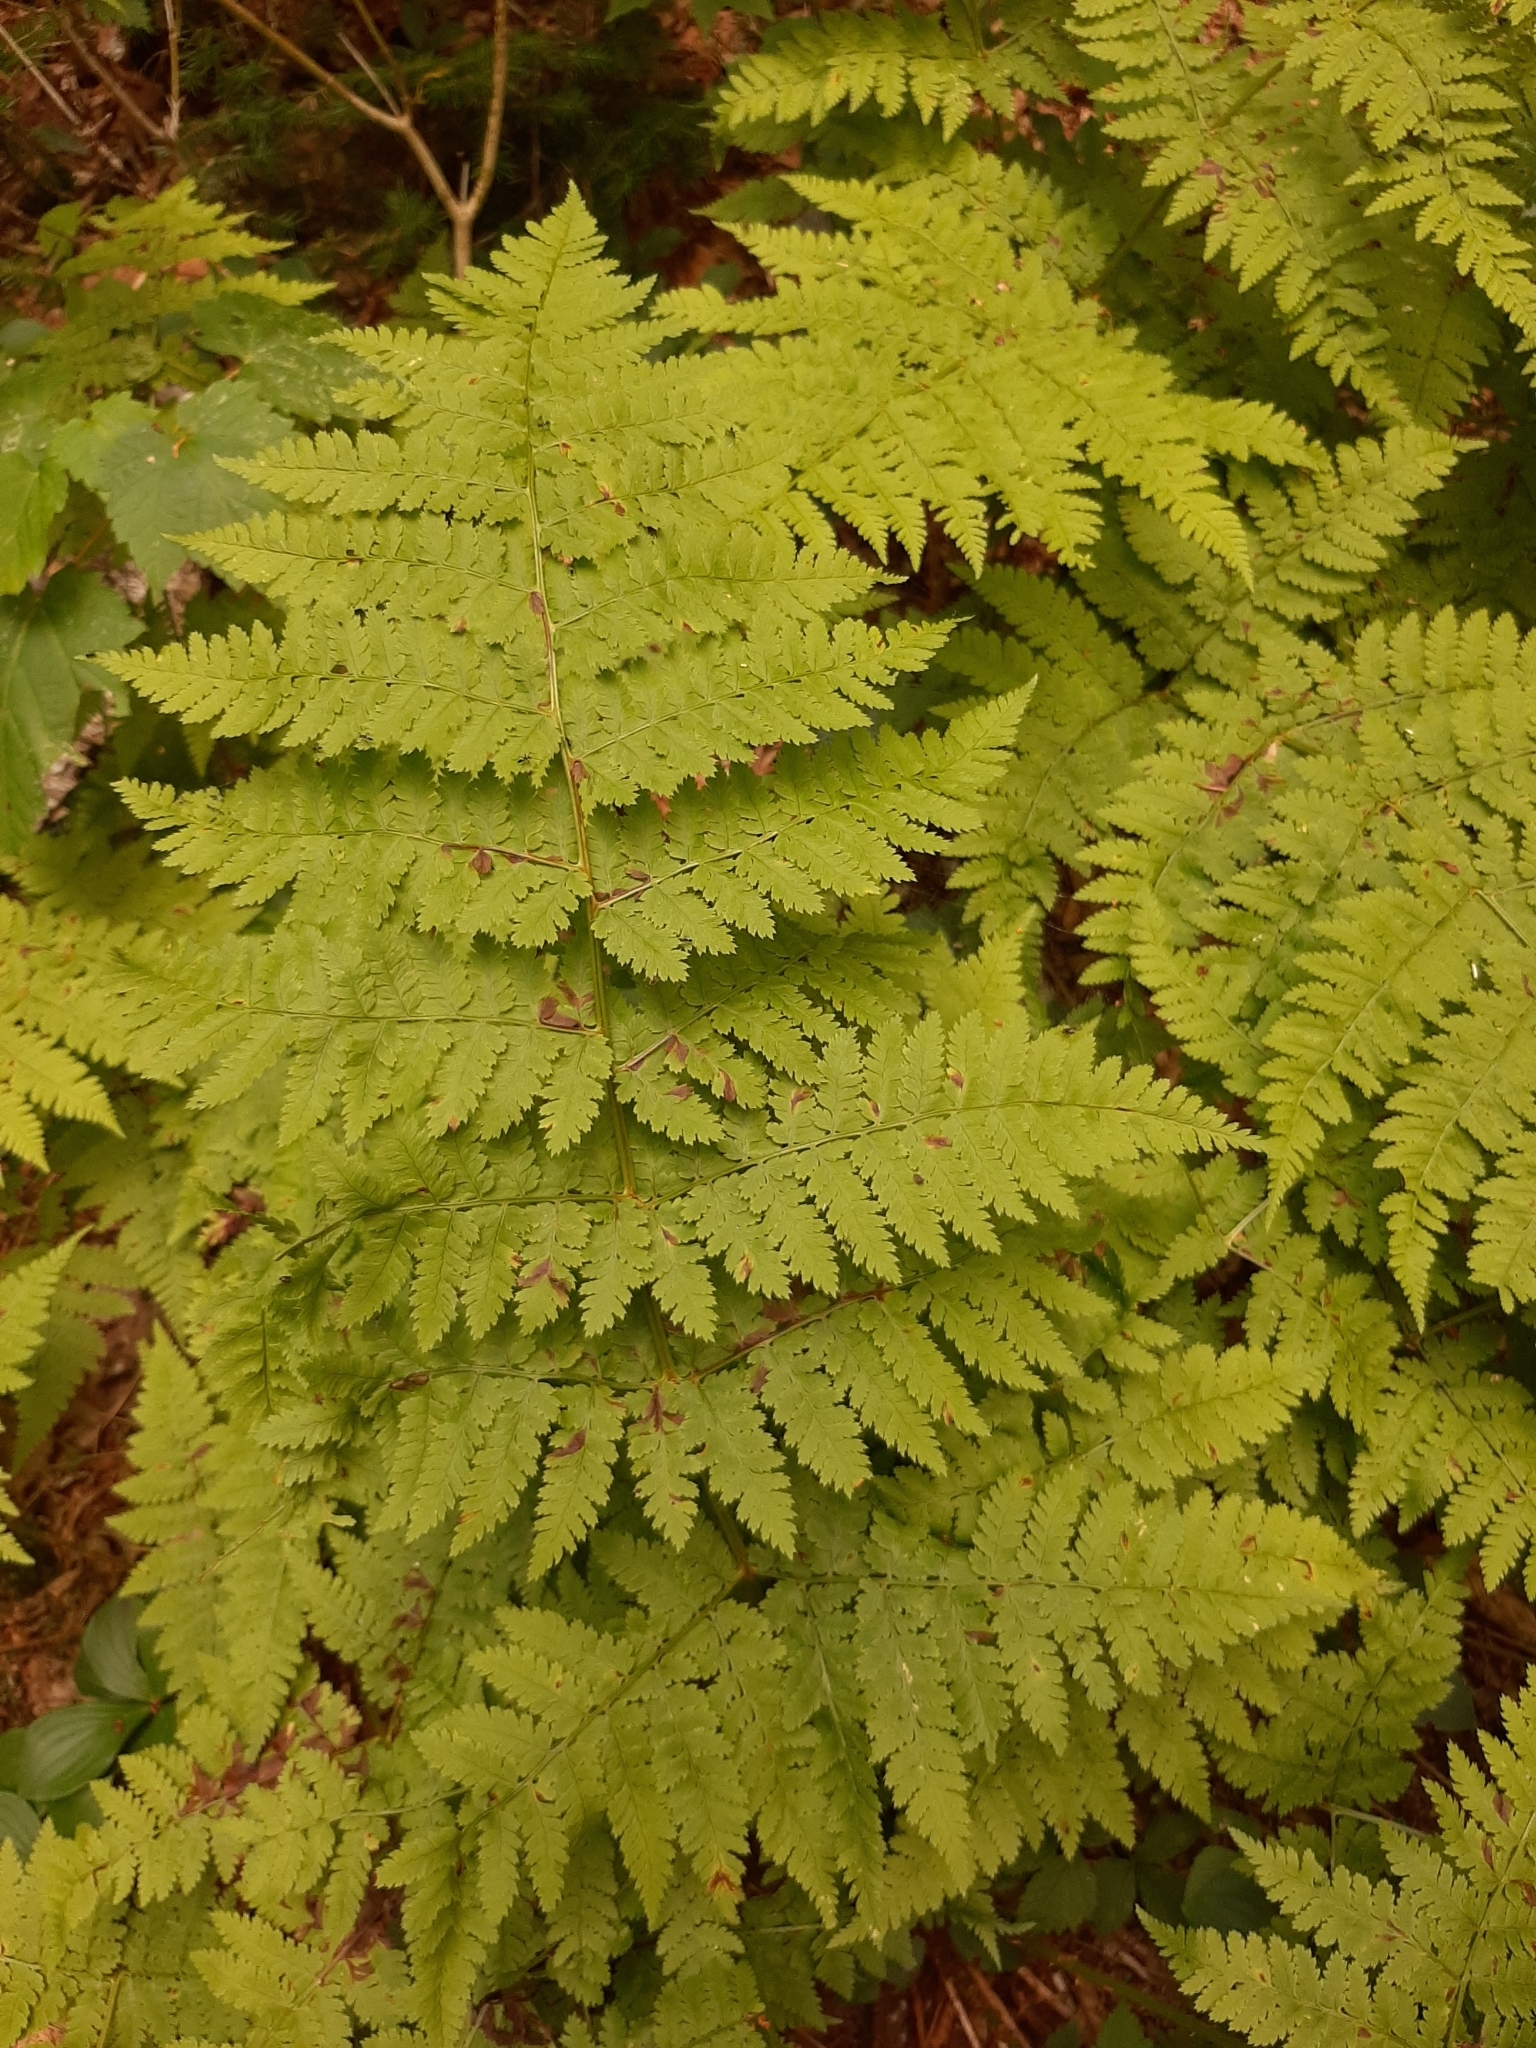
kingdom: Plantae
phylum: Tracheophyta
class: Polypodiopsida
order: Polypodiales
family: Dryopteridaceae
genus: Dryopteris
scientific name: Dryopteris campyloptera
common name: Mountain wood fern
